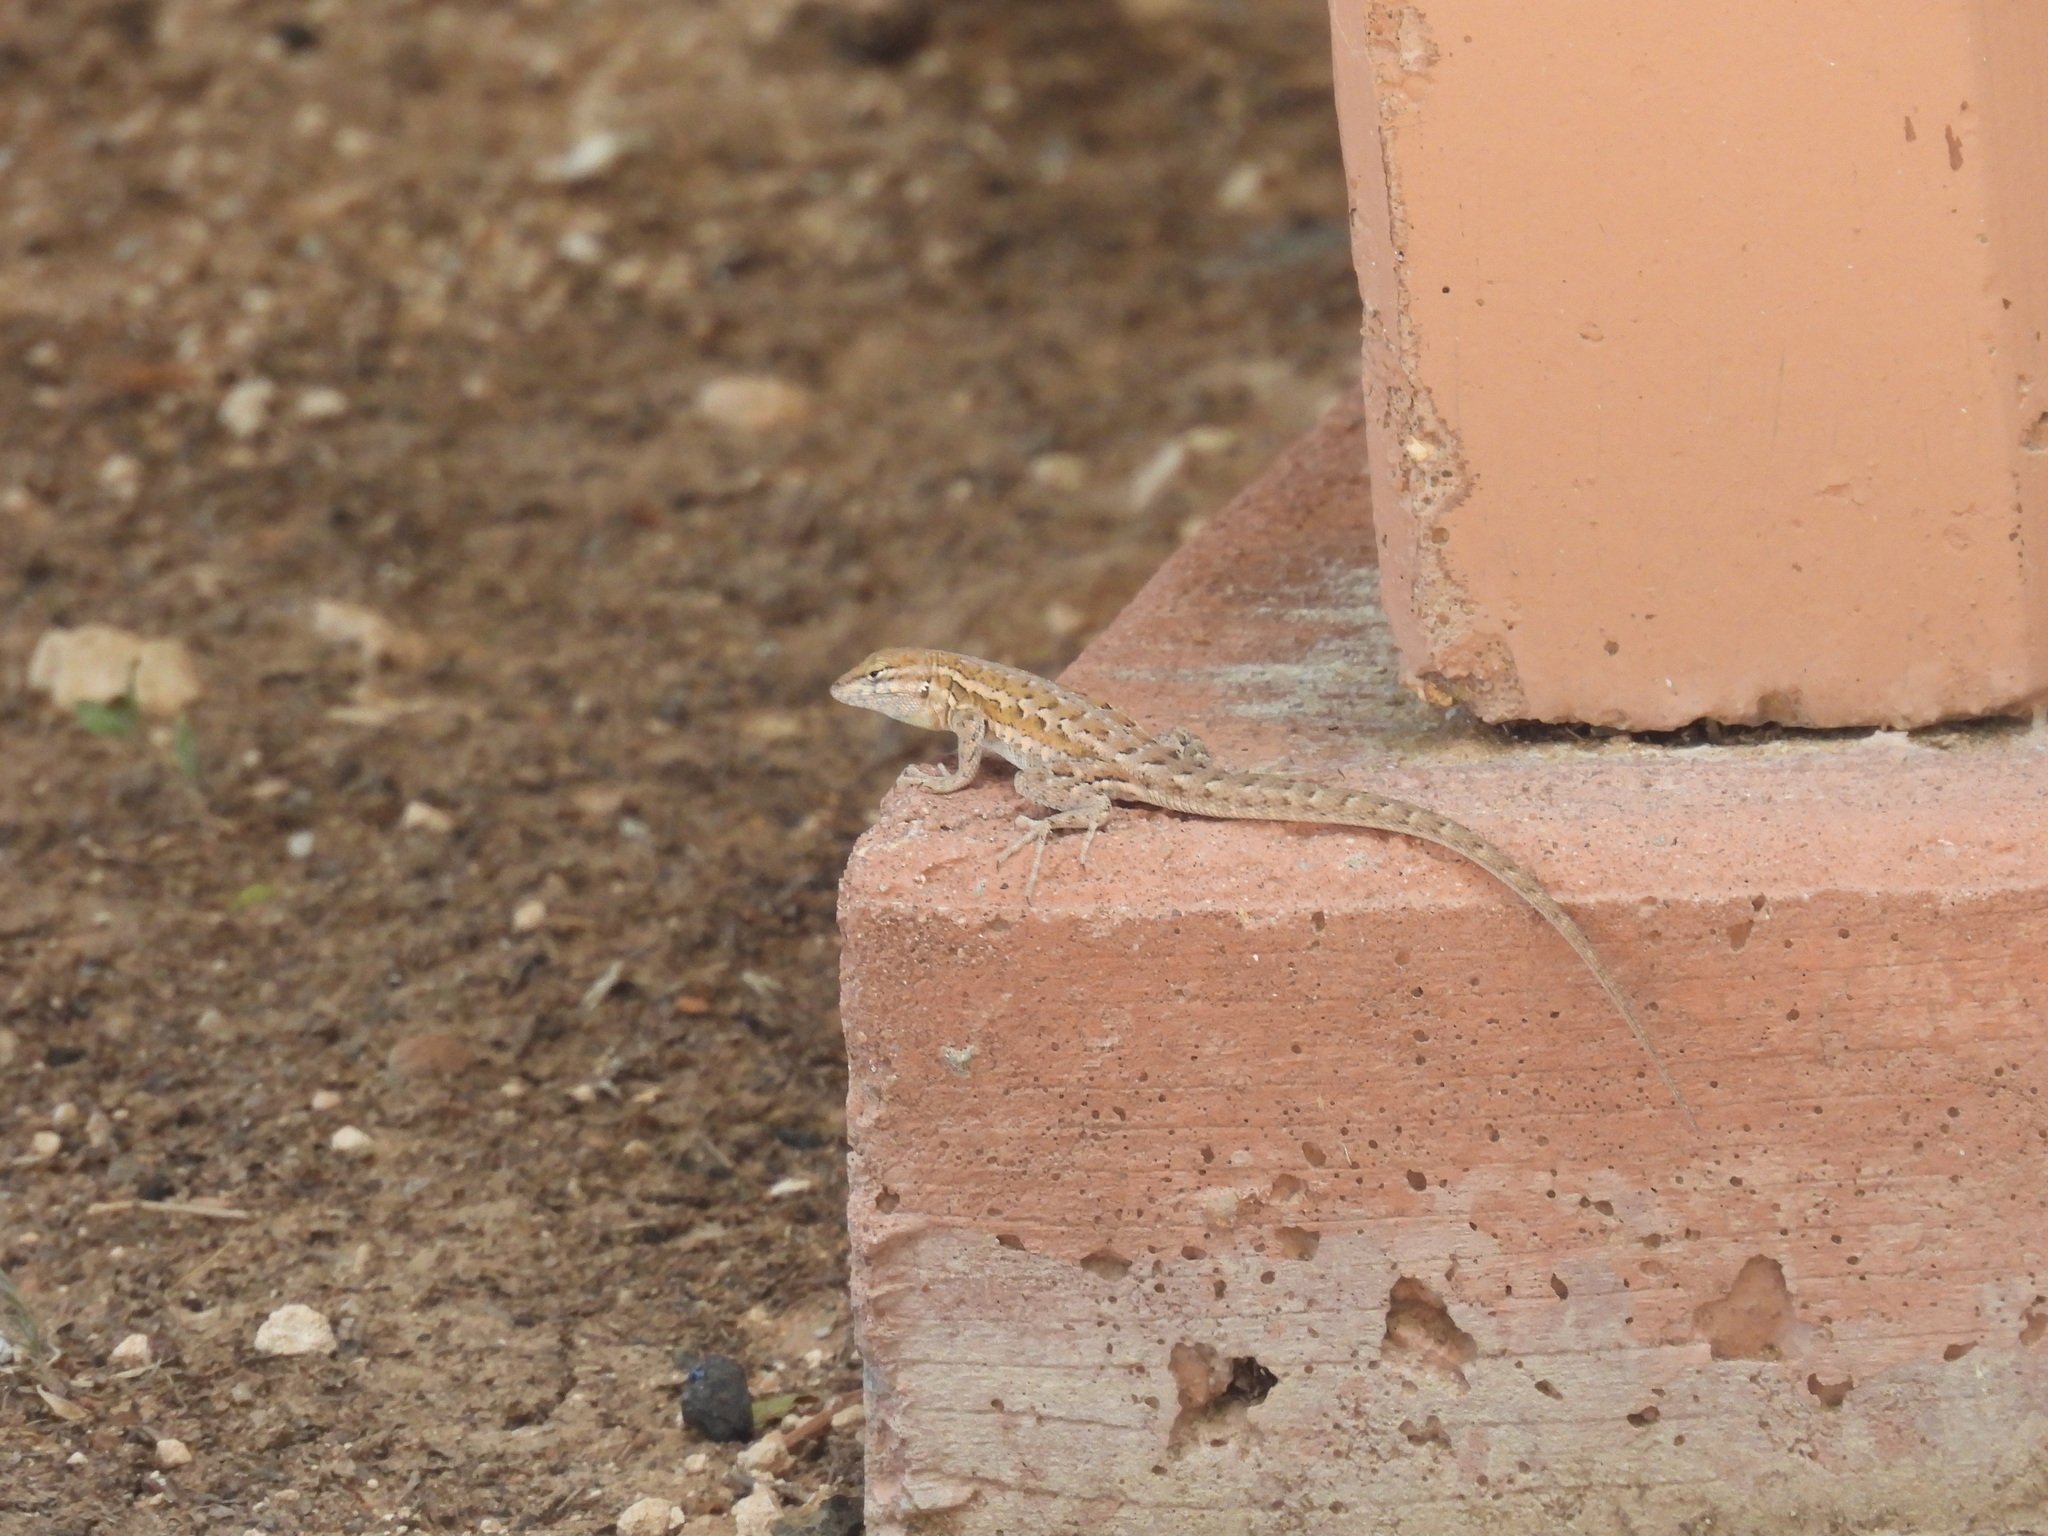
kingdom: Animalia
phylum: Chordata
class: Squamata
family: Phrynosomatidae
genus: Uta
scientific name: Uta stansburiana
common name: Side-blotched lizard
